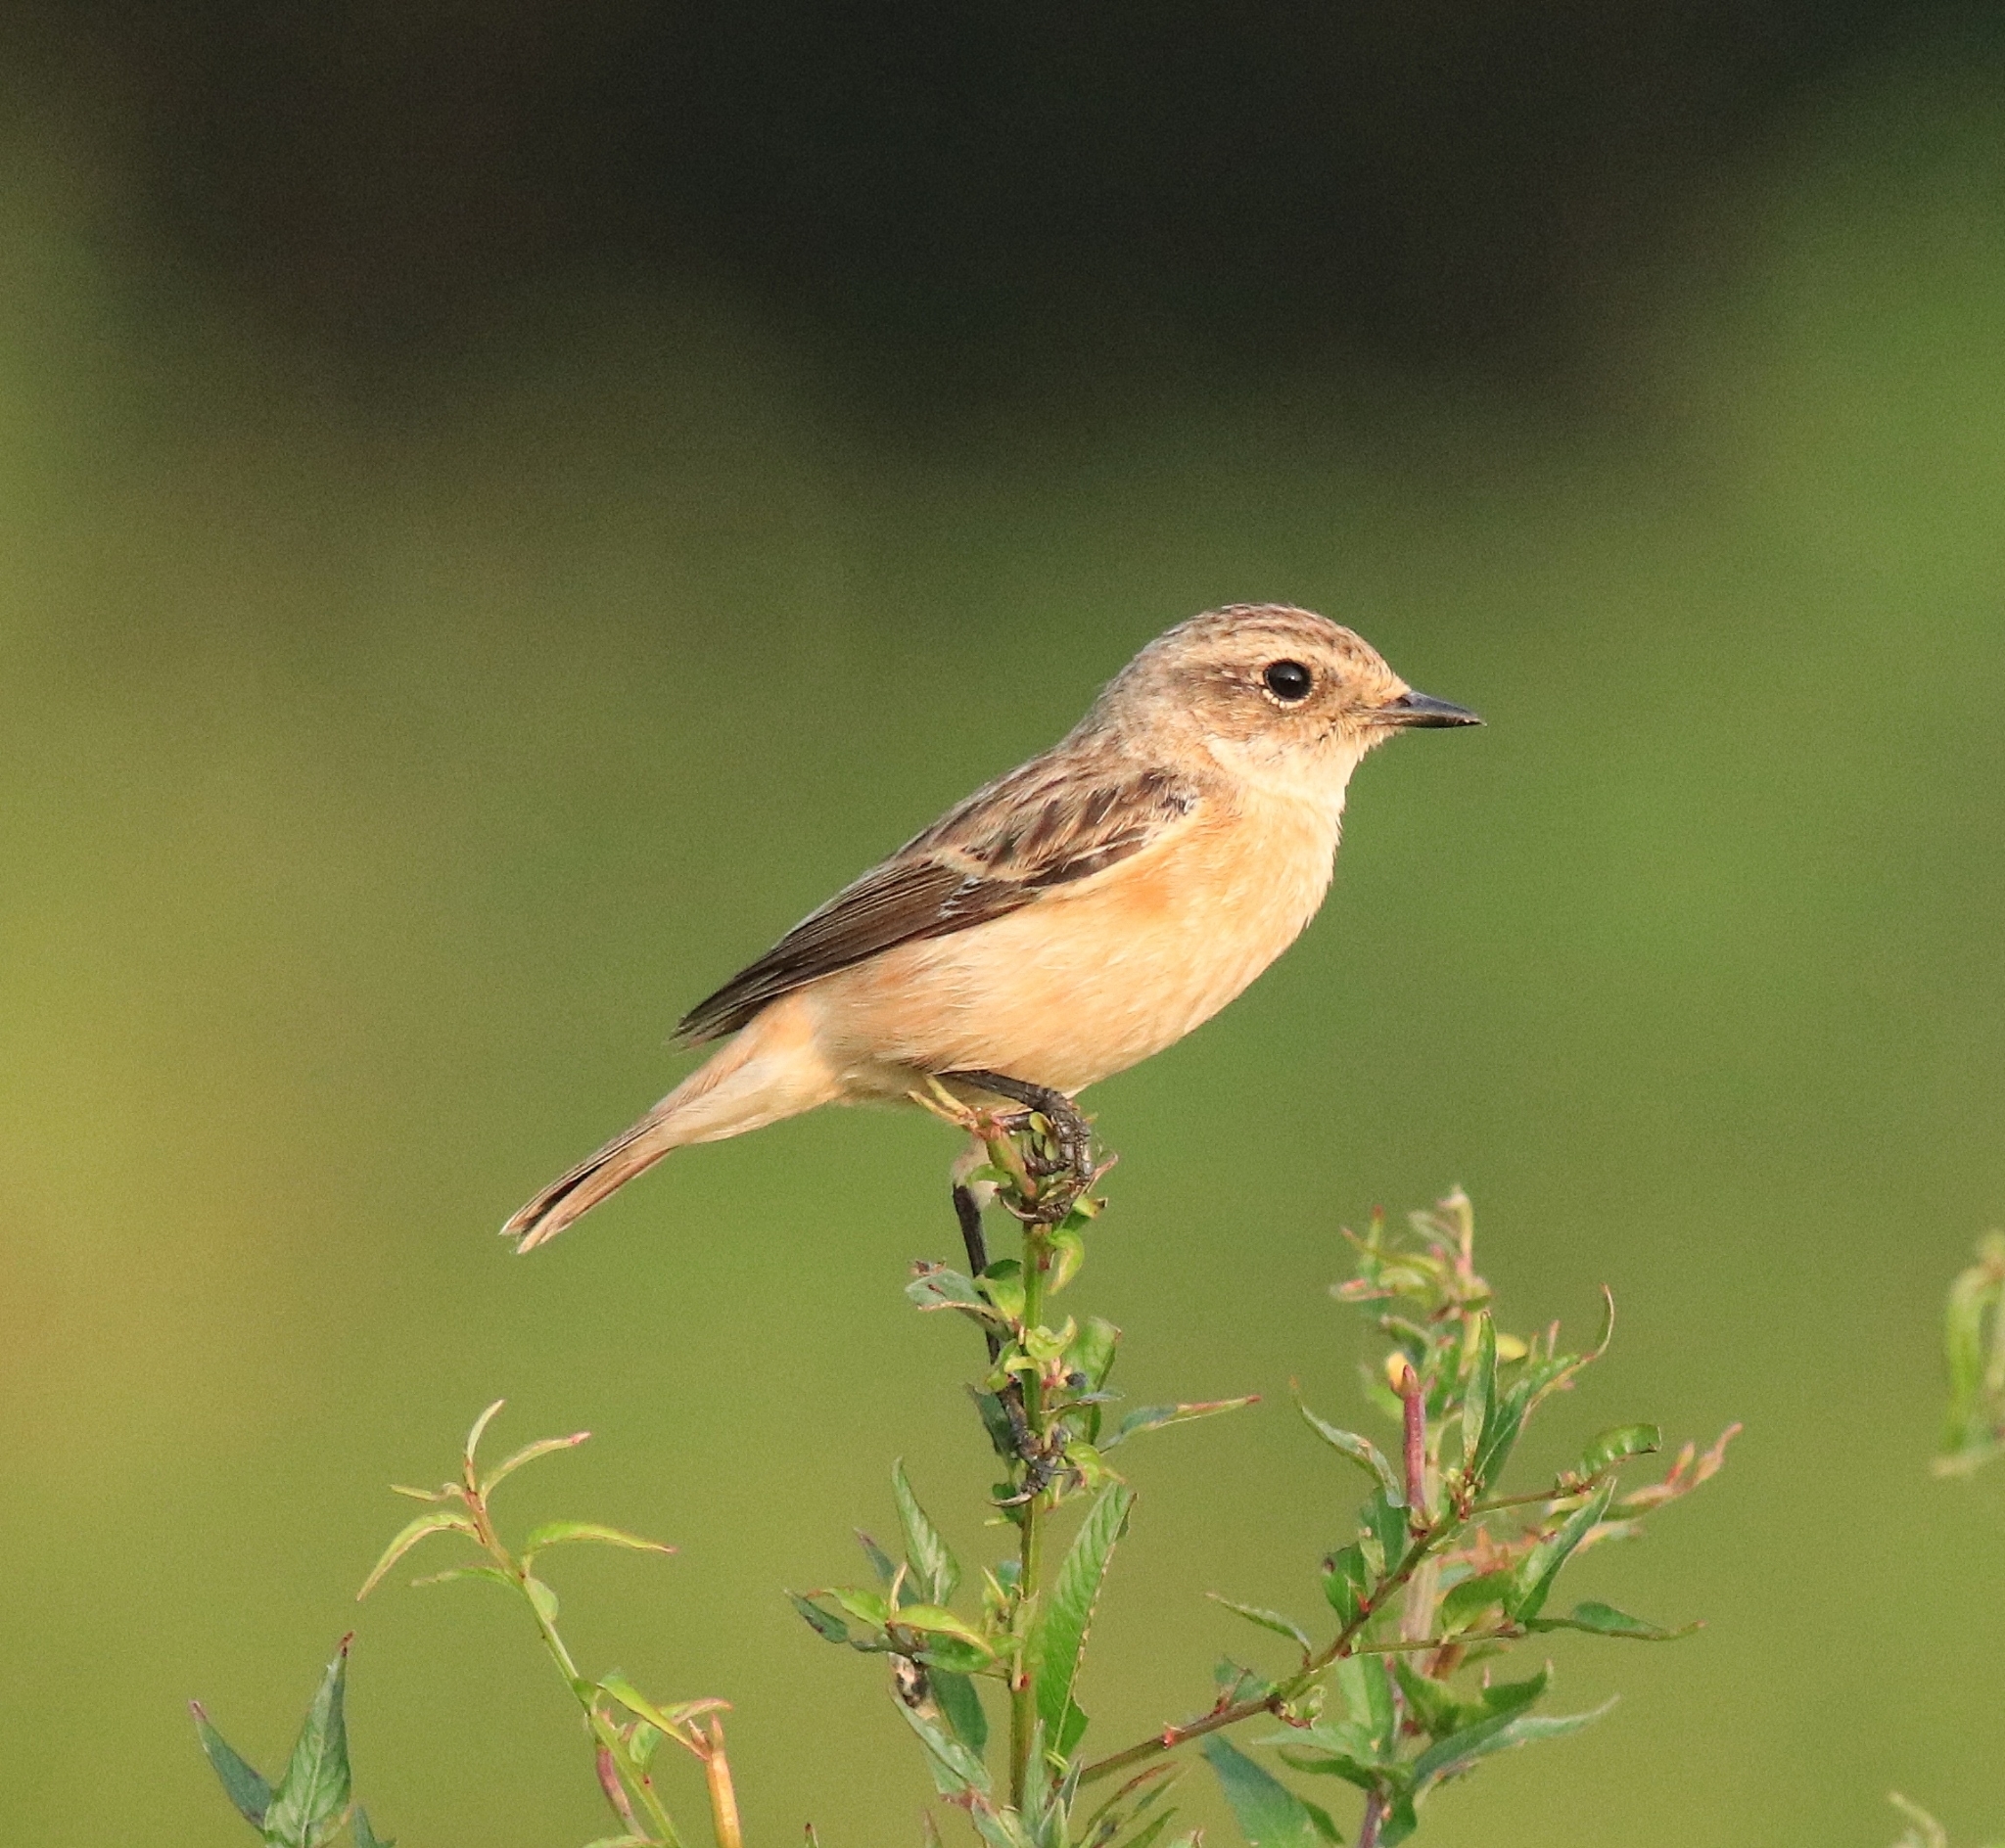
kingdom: Animalia
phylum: Chordata
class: Aves
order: Passeriformes
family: Muscicapidae
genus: Saxicola
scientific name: Saxicola maurus
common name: Siberian stonechat
